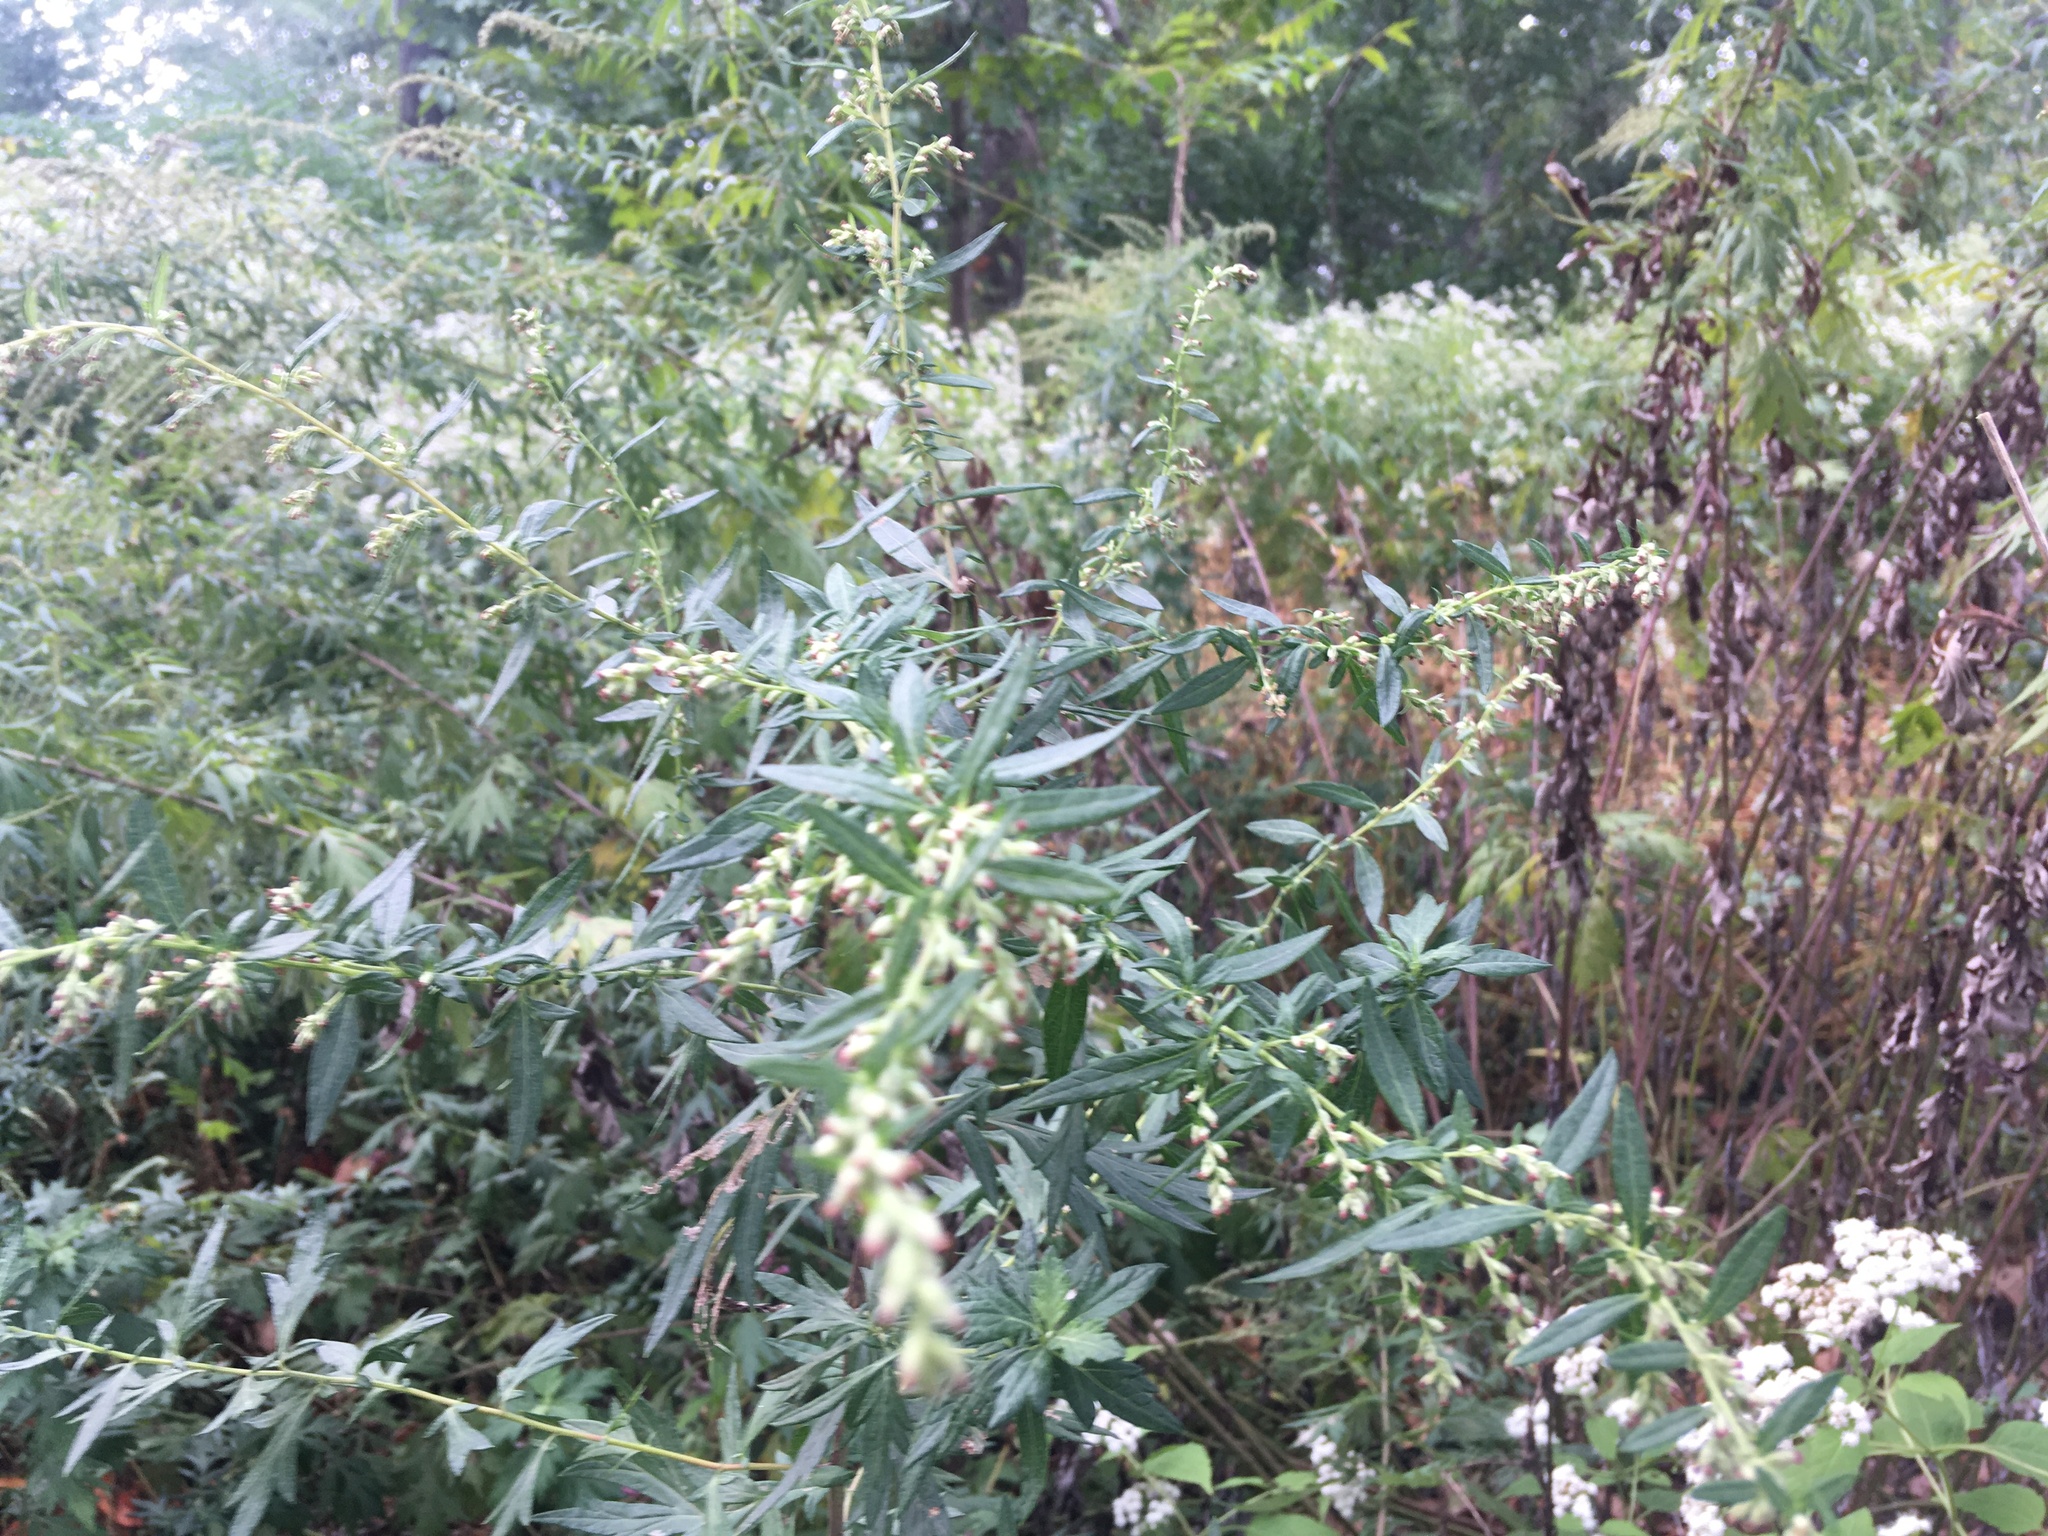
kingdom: Plantae
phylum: Tracheophyta
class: Magnoliopsida
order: Asterales
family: Asteraceae
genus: Artemisia
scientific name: Artemisia vulgaris
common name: Mugwort
